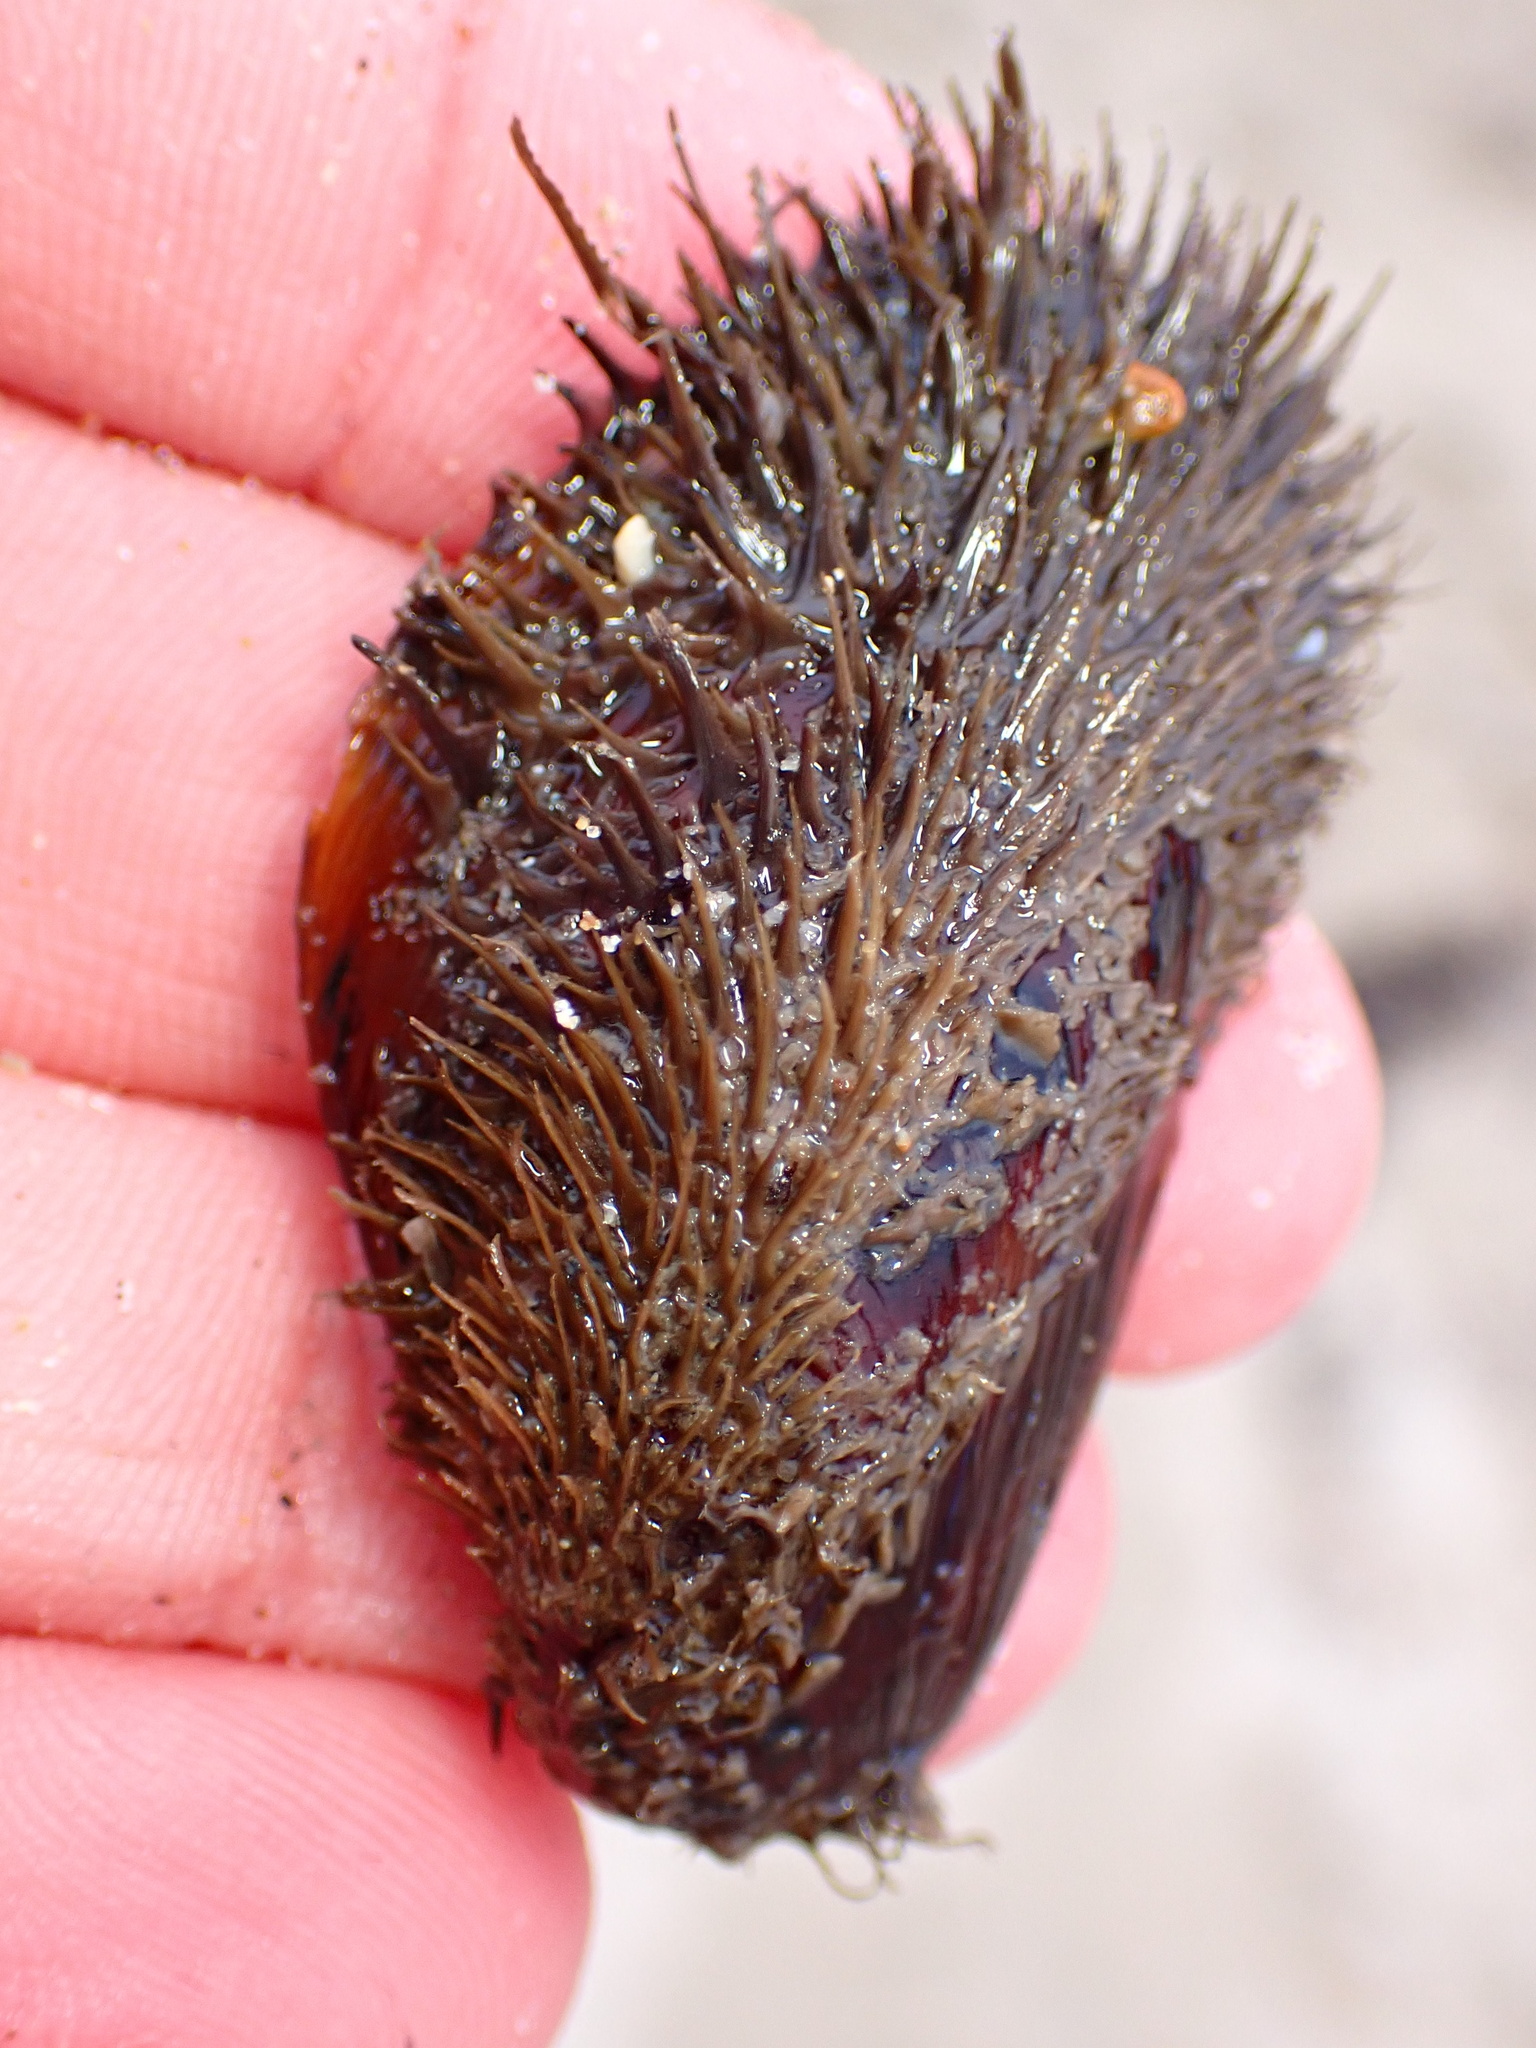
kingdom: Animalia
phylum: Mollusca
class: Bivalvia
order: Mytilida
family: Mytilidae
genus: Modiolus
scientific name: Modiolus capax
